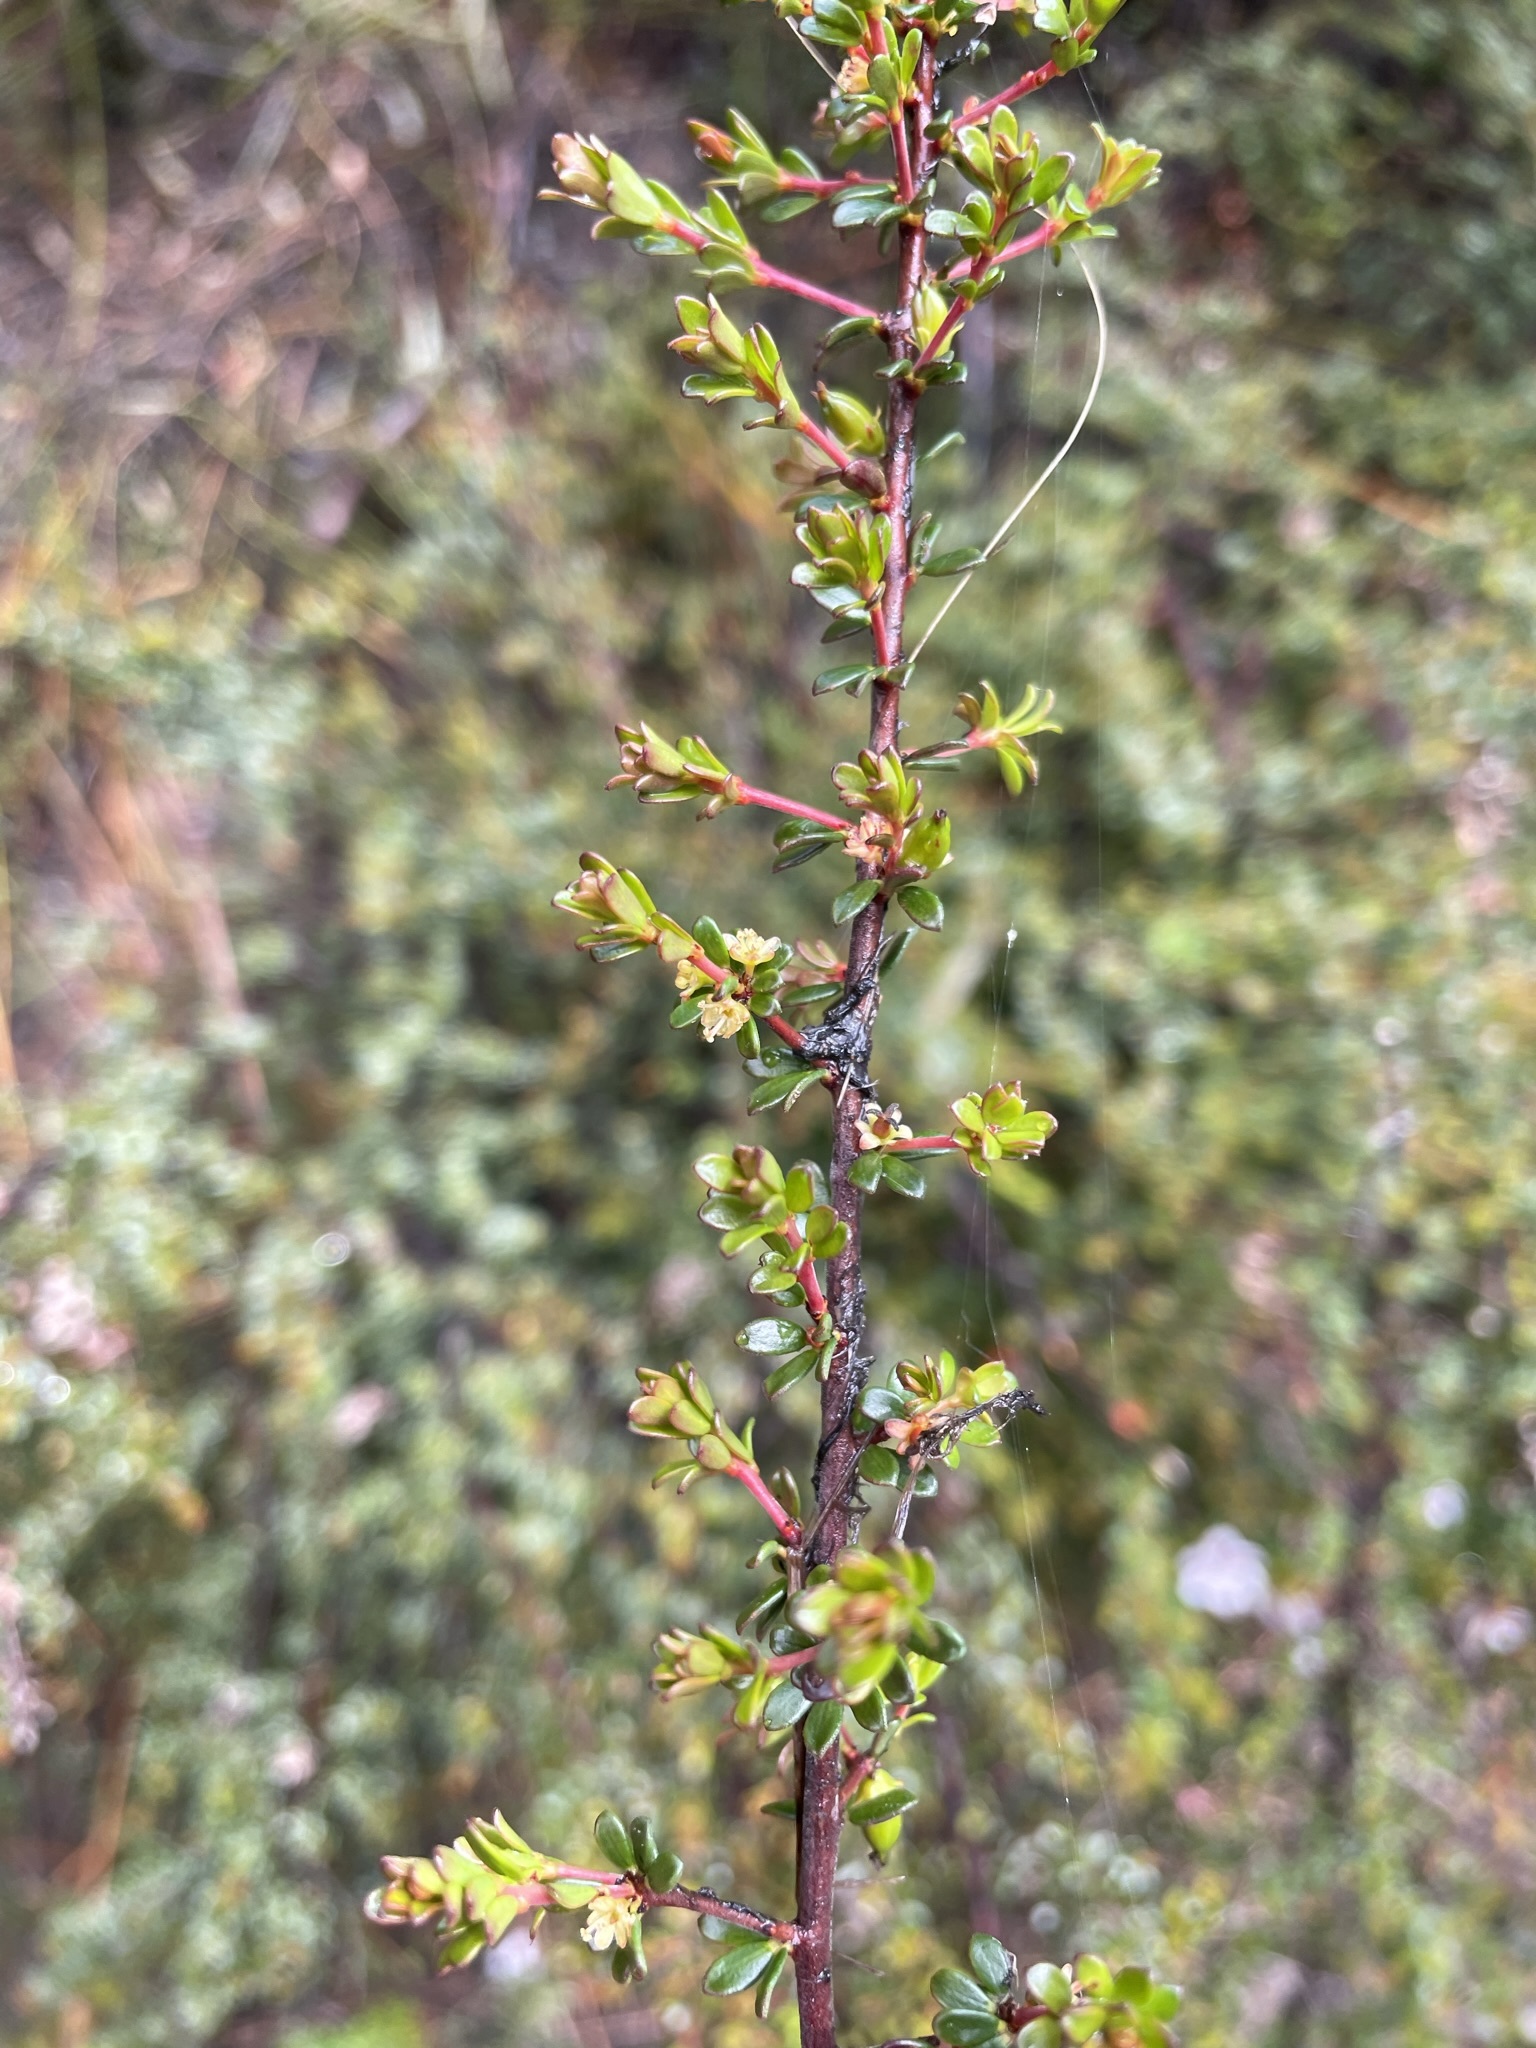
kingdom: Plantae
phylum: Tracheophyta
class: Magnoliopsida
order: Malpighiales
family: Picrodendraceae
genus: Micrantheum
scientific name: Micrantheum serpentinum
